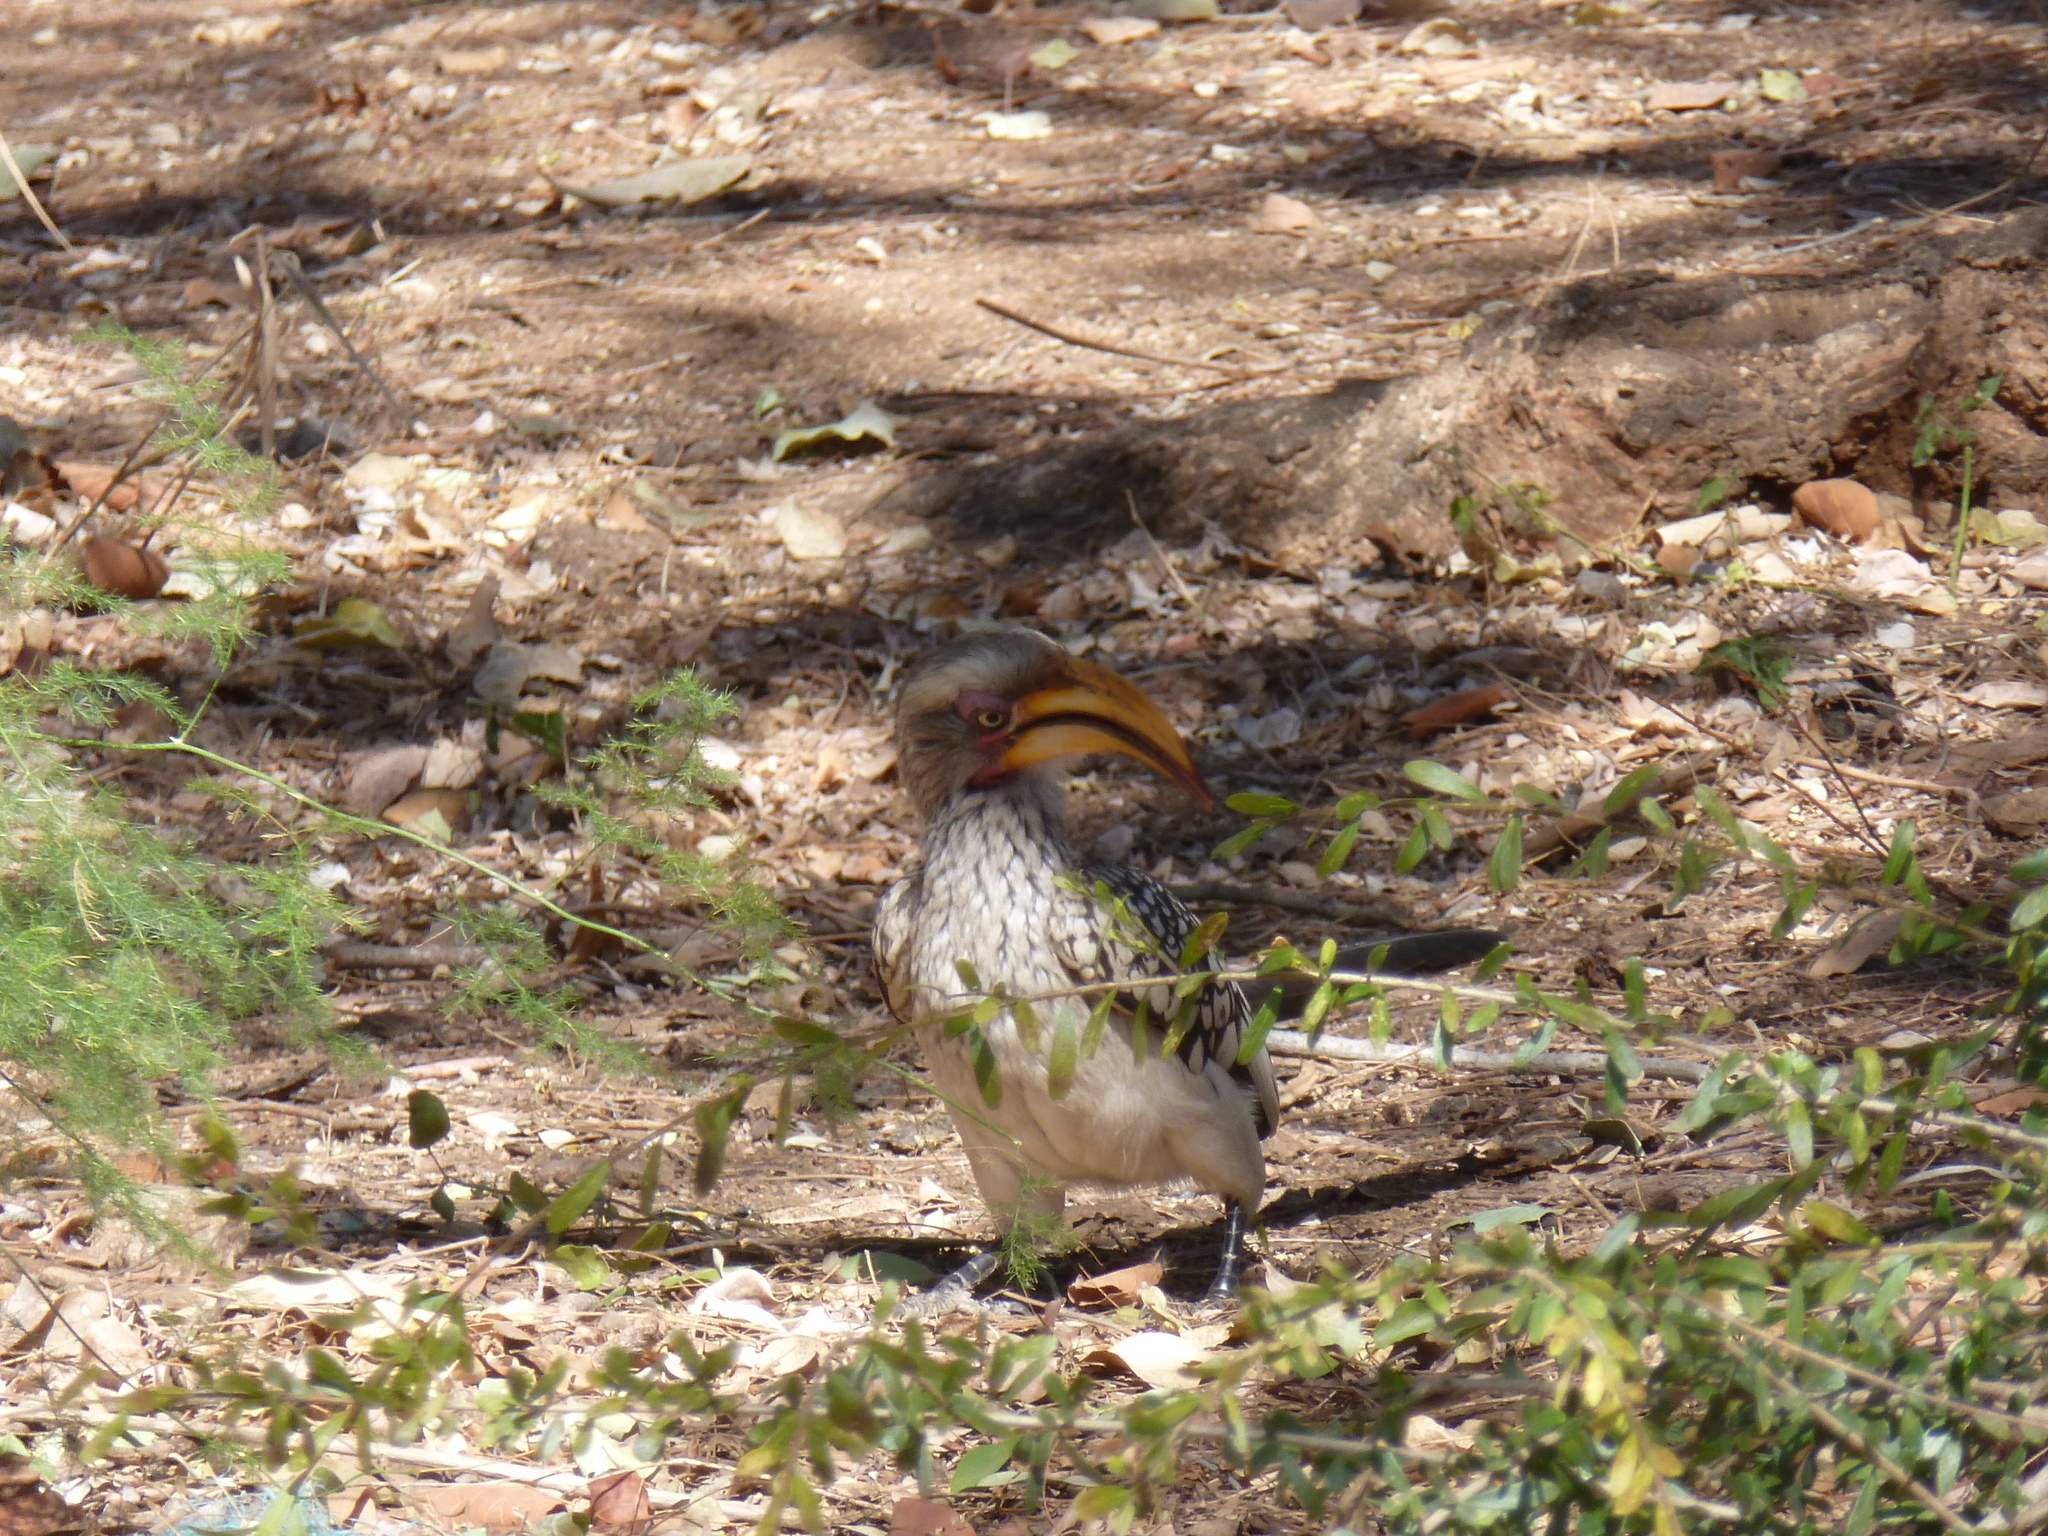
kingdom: Animalia
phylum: Chordata
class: Aves
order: Bucerotiformes
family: Bucerotidae
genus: Tockus
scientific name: Tockus leucomelas
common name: Southern yellow-billed hornbill
